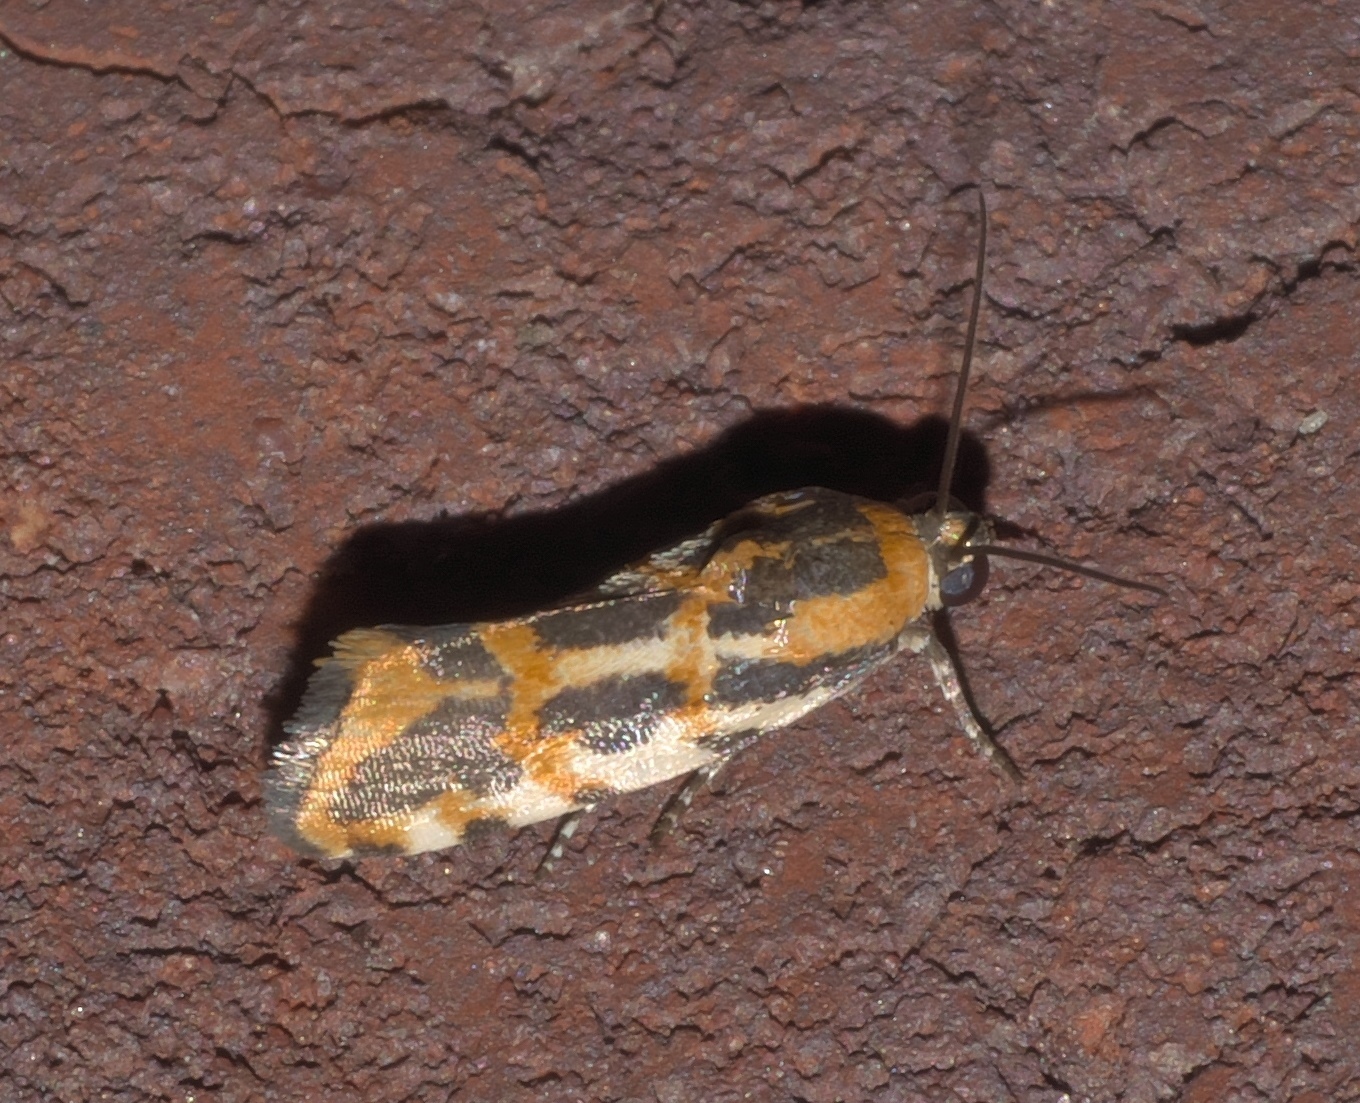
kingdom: Animalia
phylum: Arthropoda
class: Insecta
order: Lepidoptera
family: Noctuidae
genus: Acontia
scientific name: Acontia leo
